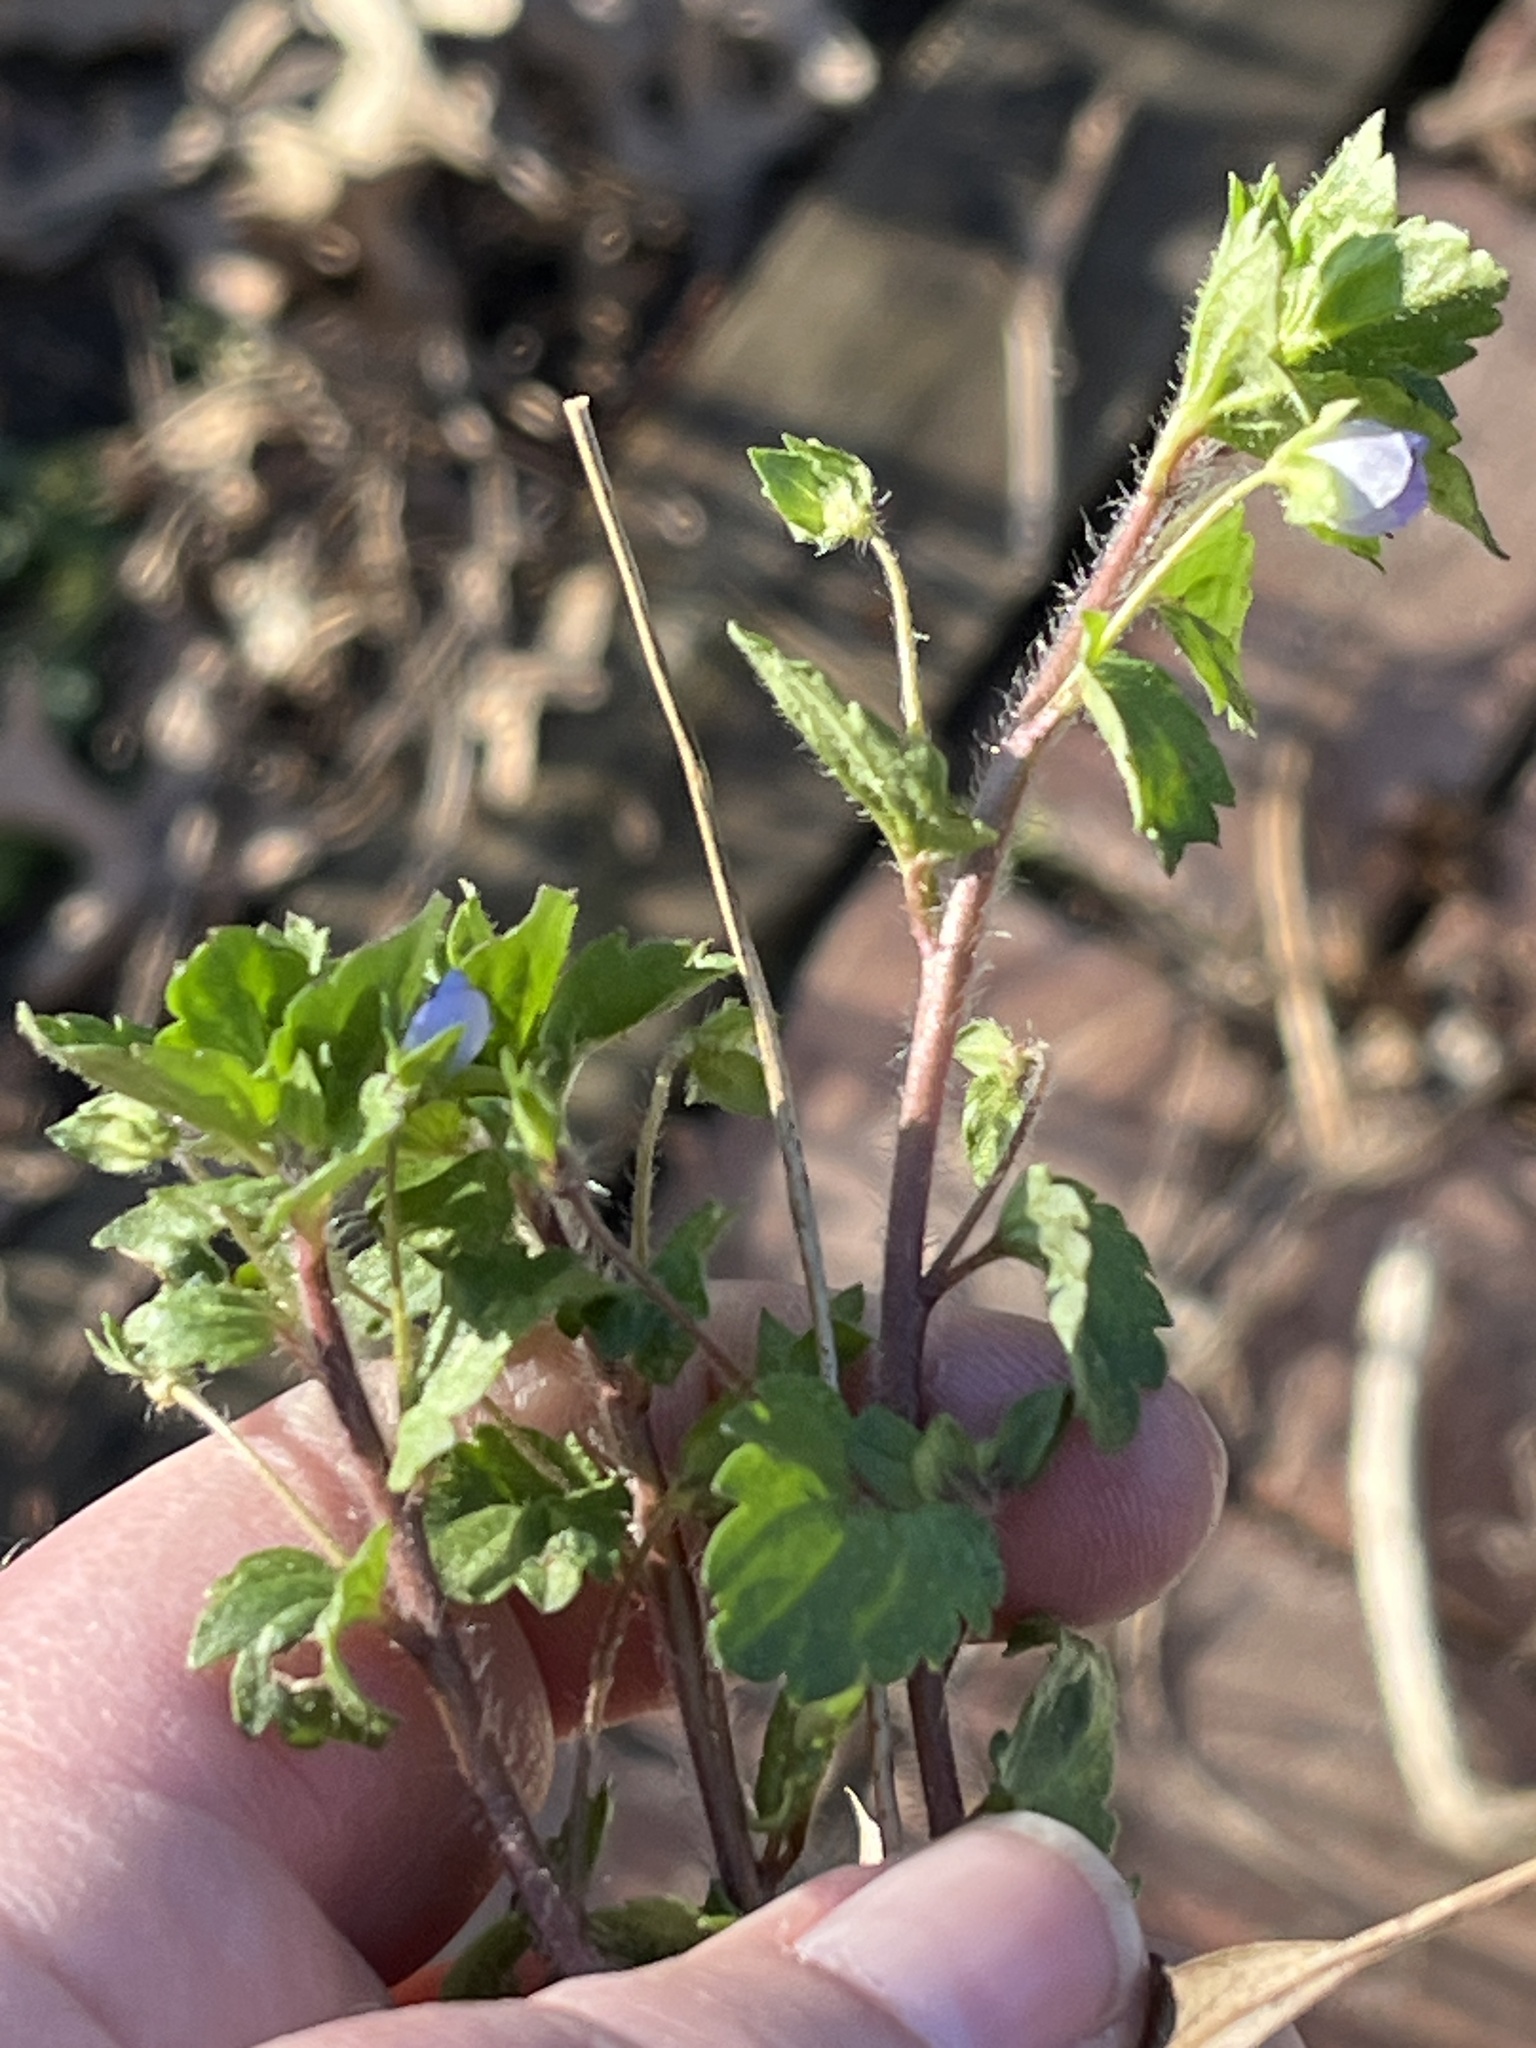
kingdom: Plantae
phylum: Tracheophyta
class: Magnoliopsida
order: Lamiales
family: Plantaginaceae
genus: Veronica
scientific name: Veronica persica
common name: Common field-speedwell
